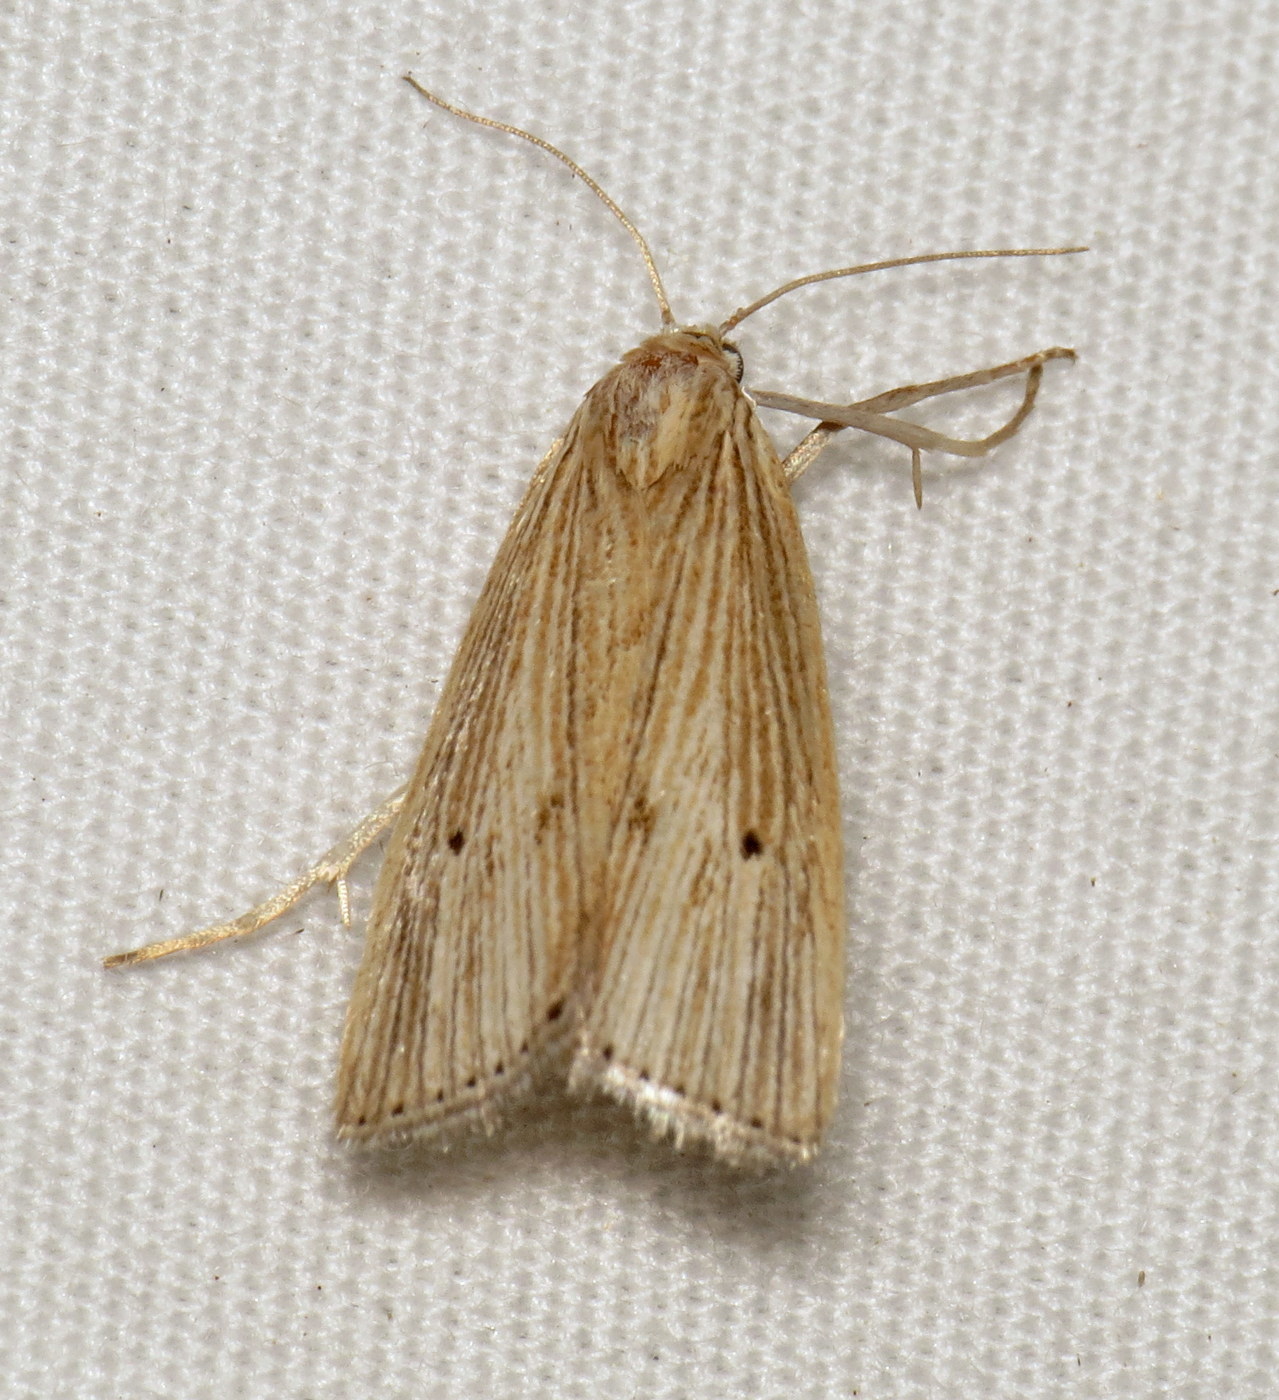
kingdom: Animalia
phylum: Arthropoda
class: Insecta
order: Lepidoptera
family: Crambidae
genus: Xubida
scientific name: Xubida panalope
